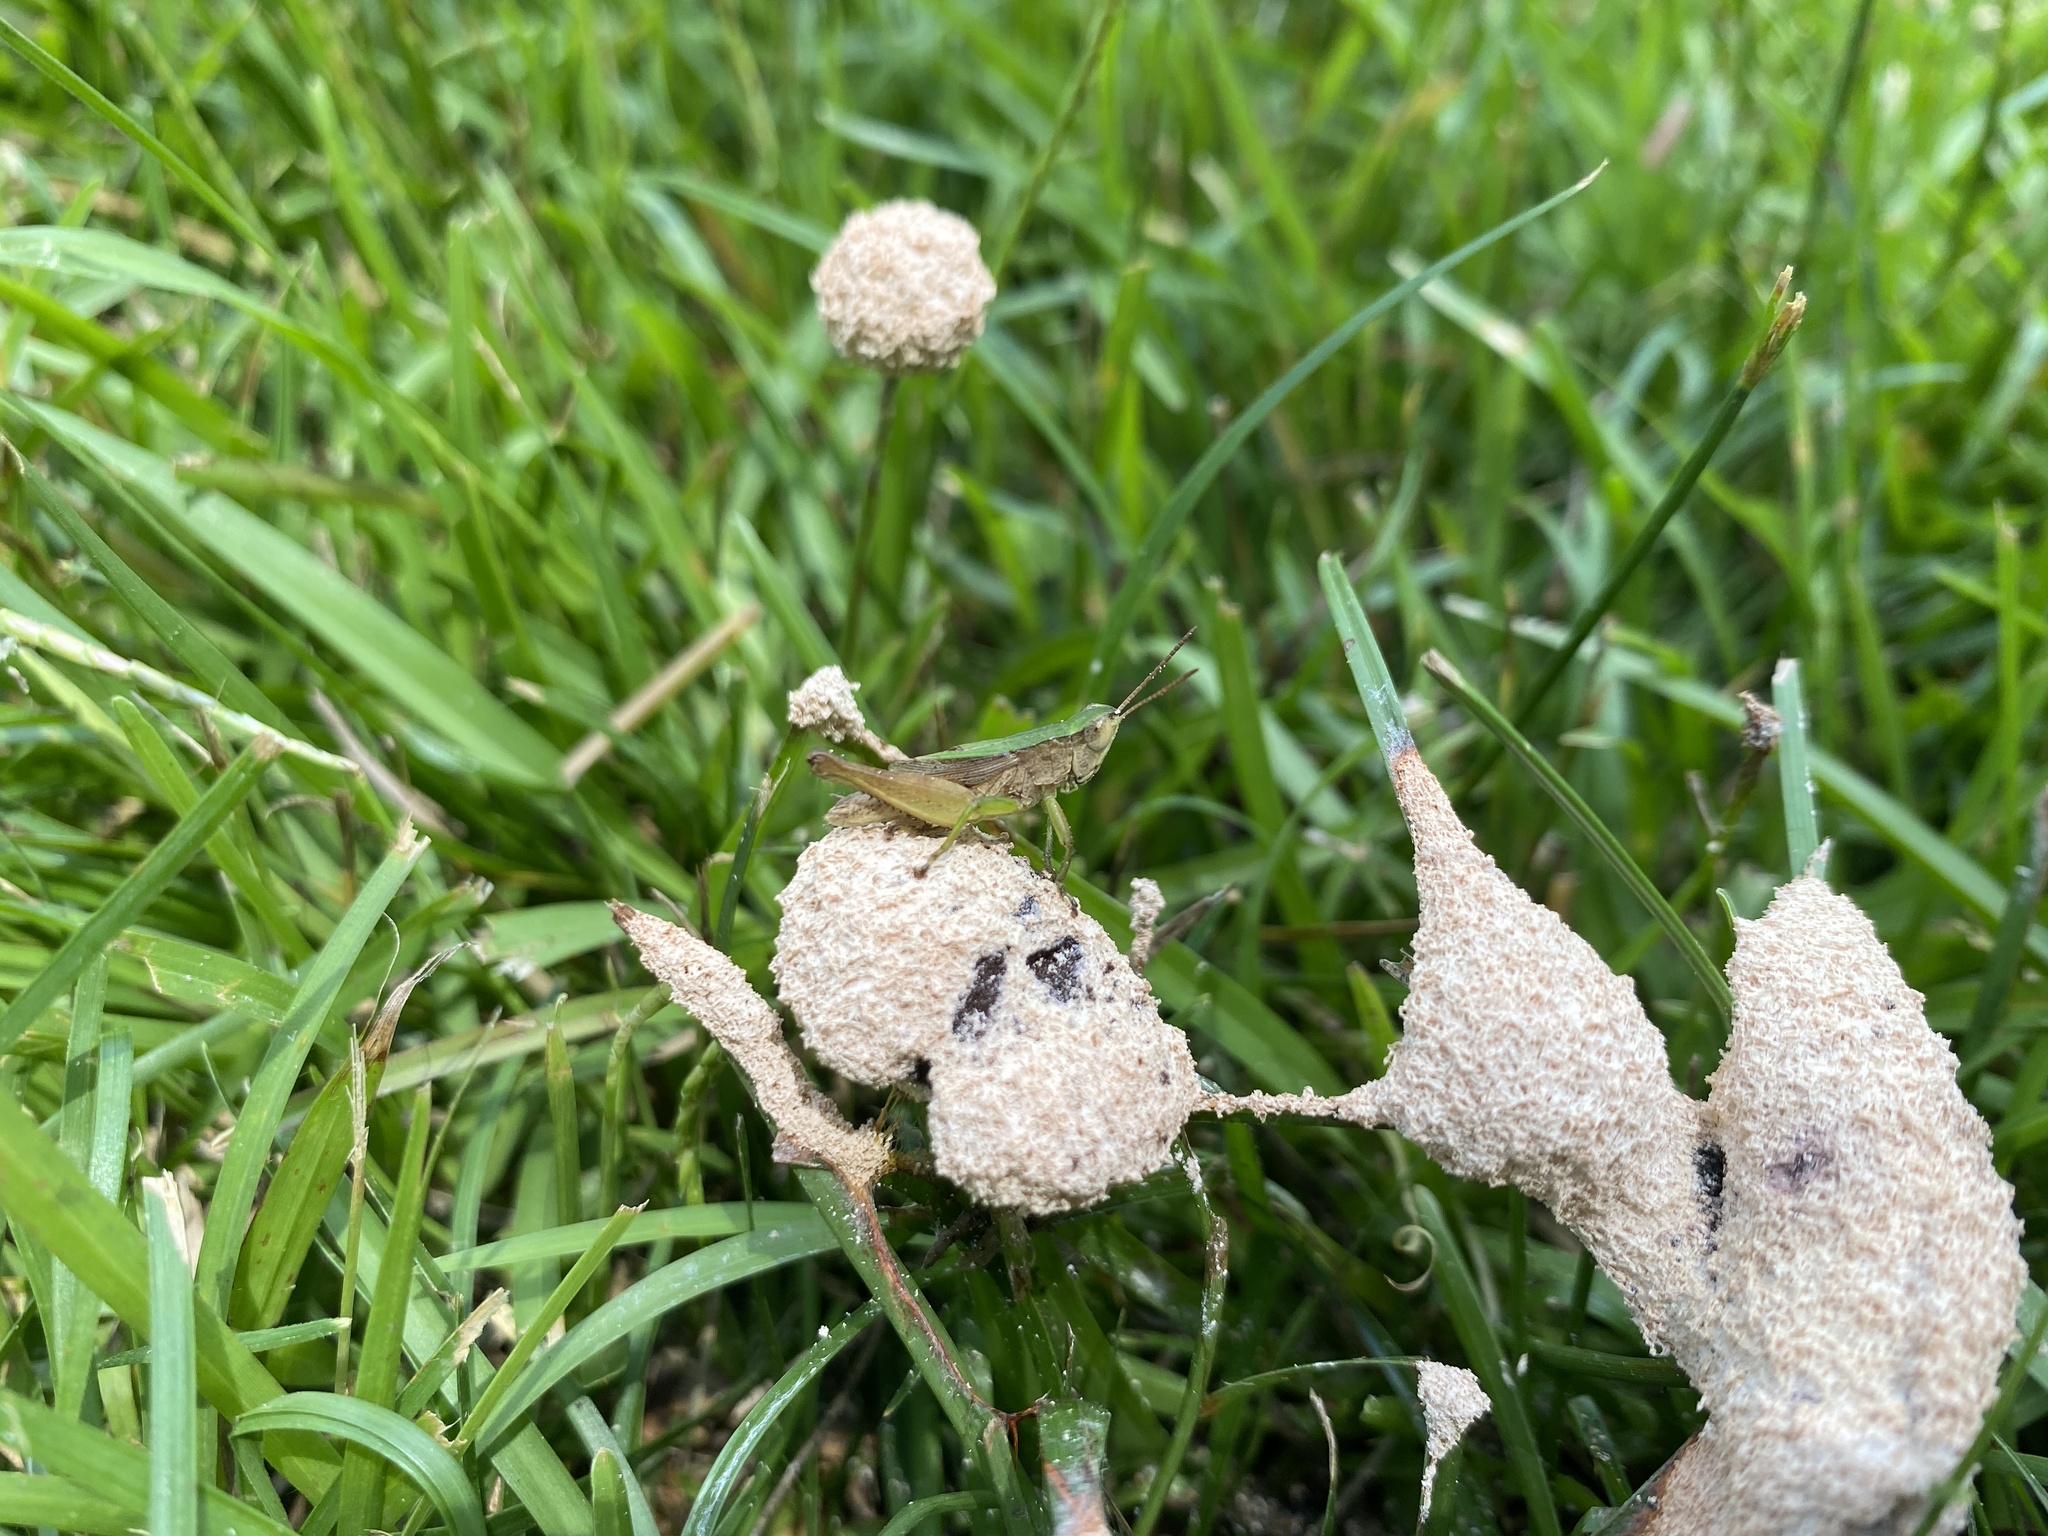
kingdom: Animalia
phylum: Arthropoda
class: Insecta
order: Orthoptera
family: Acrididae
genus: Dichromorpha
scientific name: Dichromorpha viridis
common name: Short-winged green grasshopper
